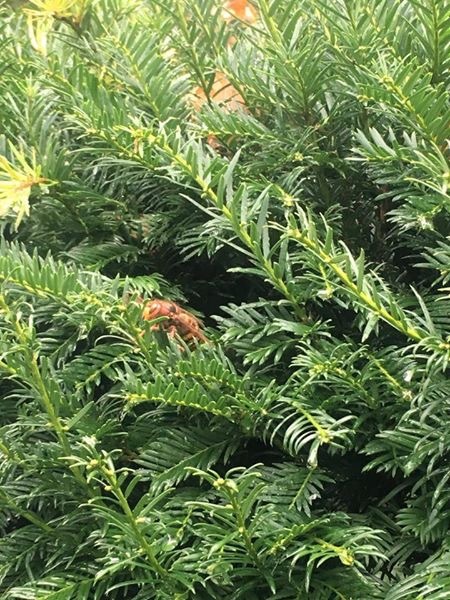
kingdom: Animalia
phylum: Arthropoda
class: Insecta
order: Hymenoptera
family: Vespidae
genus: Vespa
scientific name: Vespa crabro
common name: Hornet
